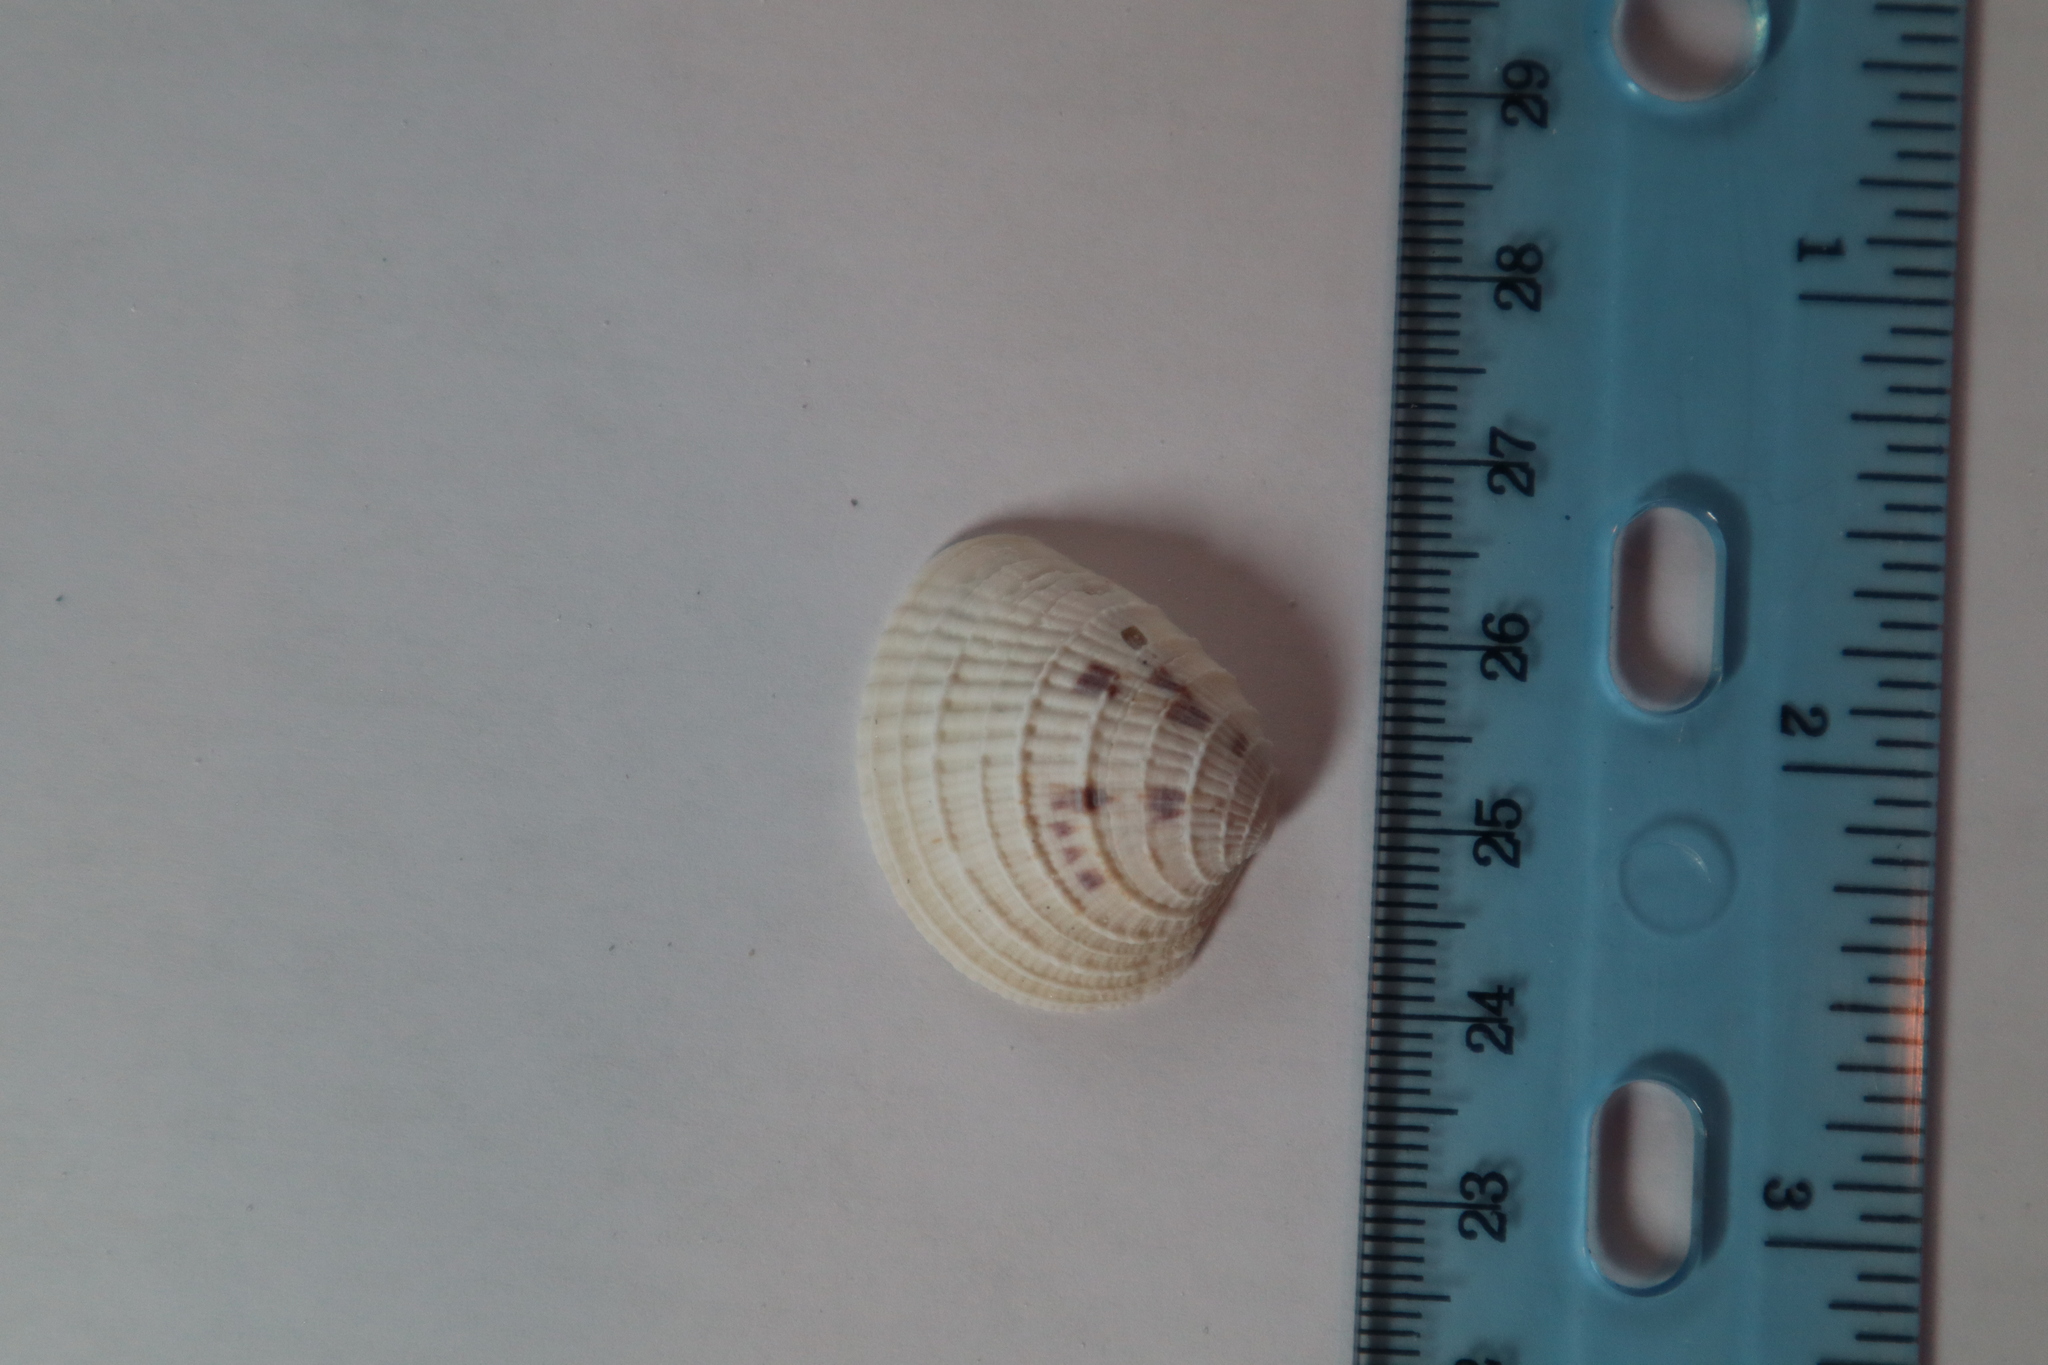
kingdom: Animalia
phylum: Mollusca
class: Bivalvia
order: Venerida
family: Veneridae
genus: Chione
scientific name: Chione elevata
